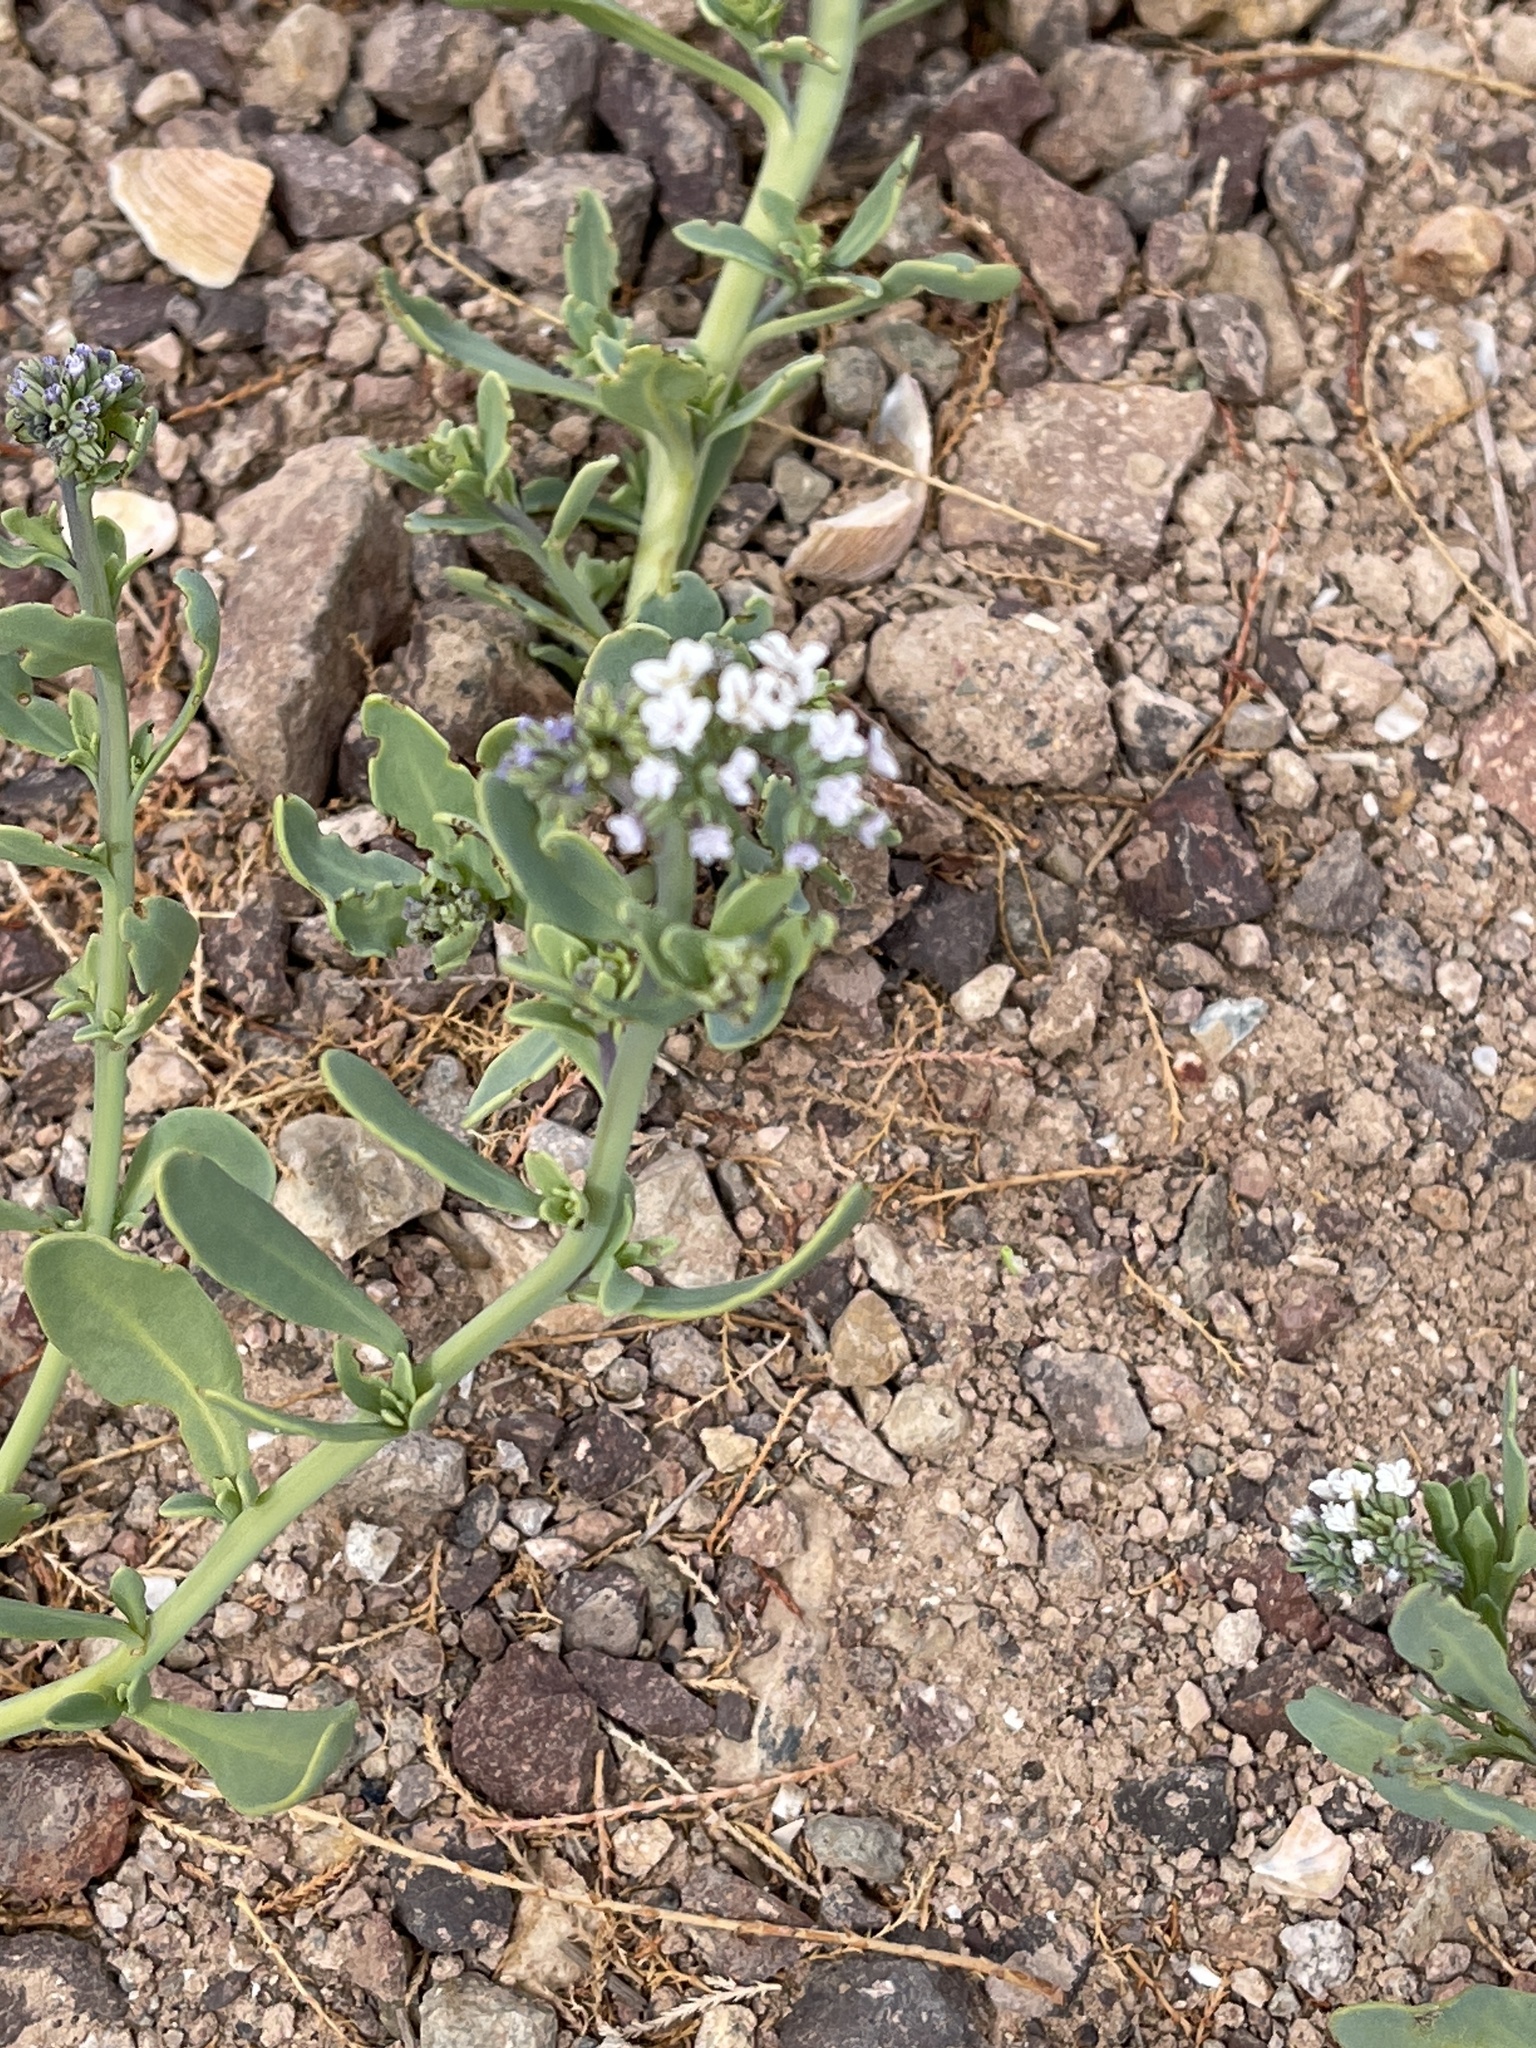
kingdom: Plantae
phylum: Tracheophyta
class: Magnoliopsida
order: Boraginales
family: Heliotropiaceae
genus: Heliotropium
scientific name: Heliotropium curassavicum
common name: Seaside heliotrope
